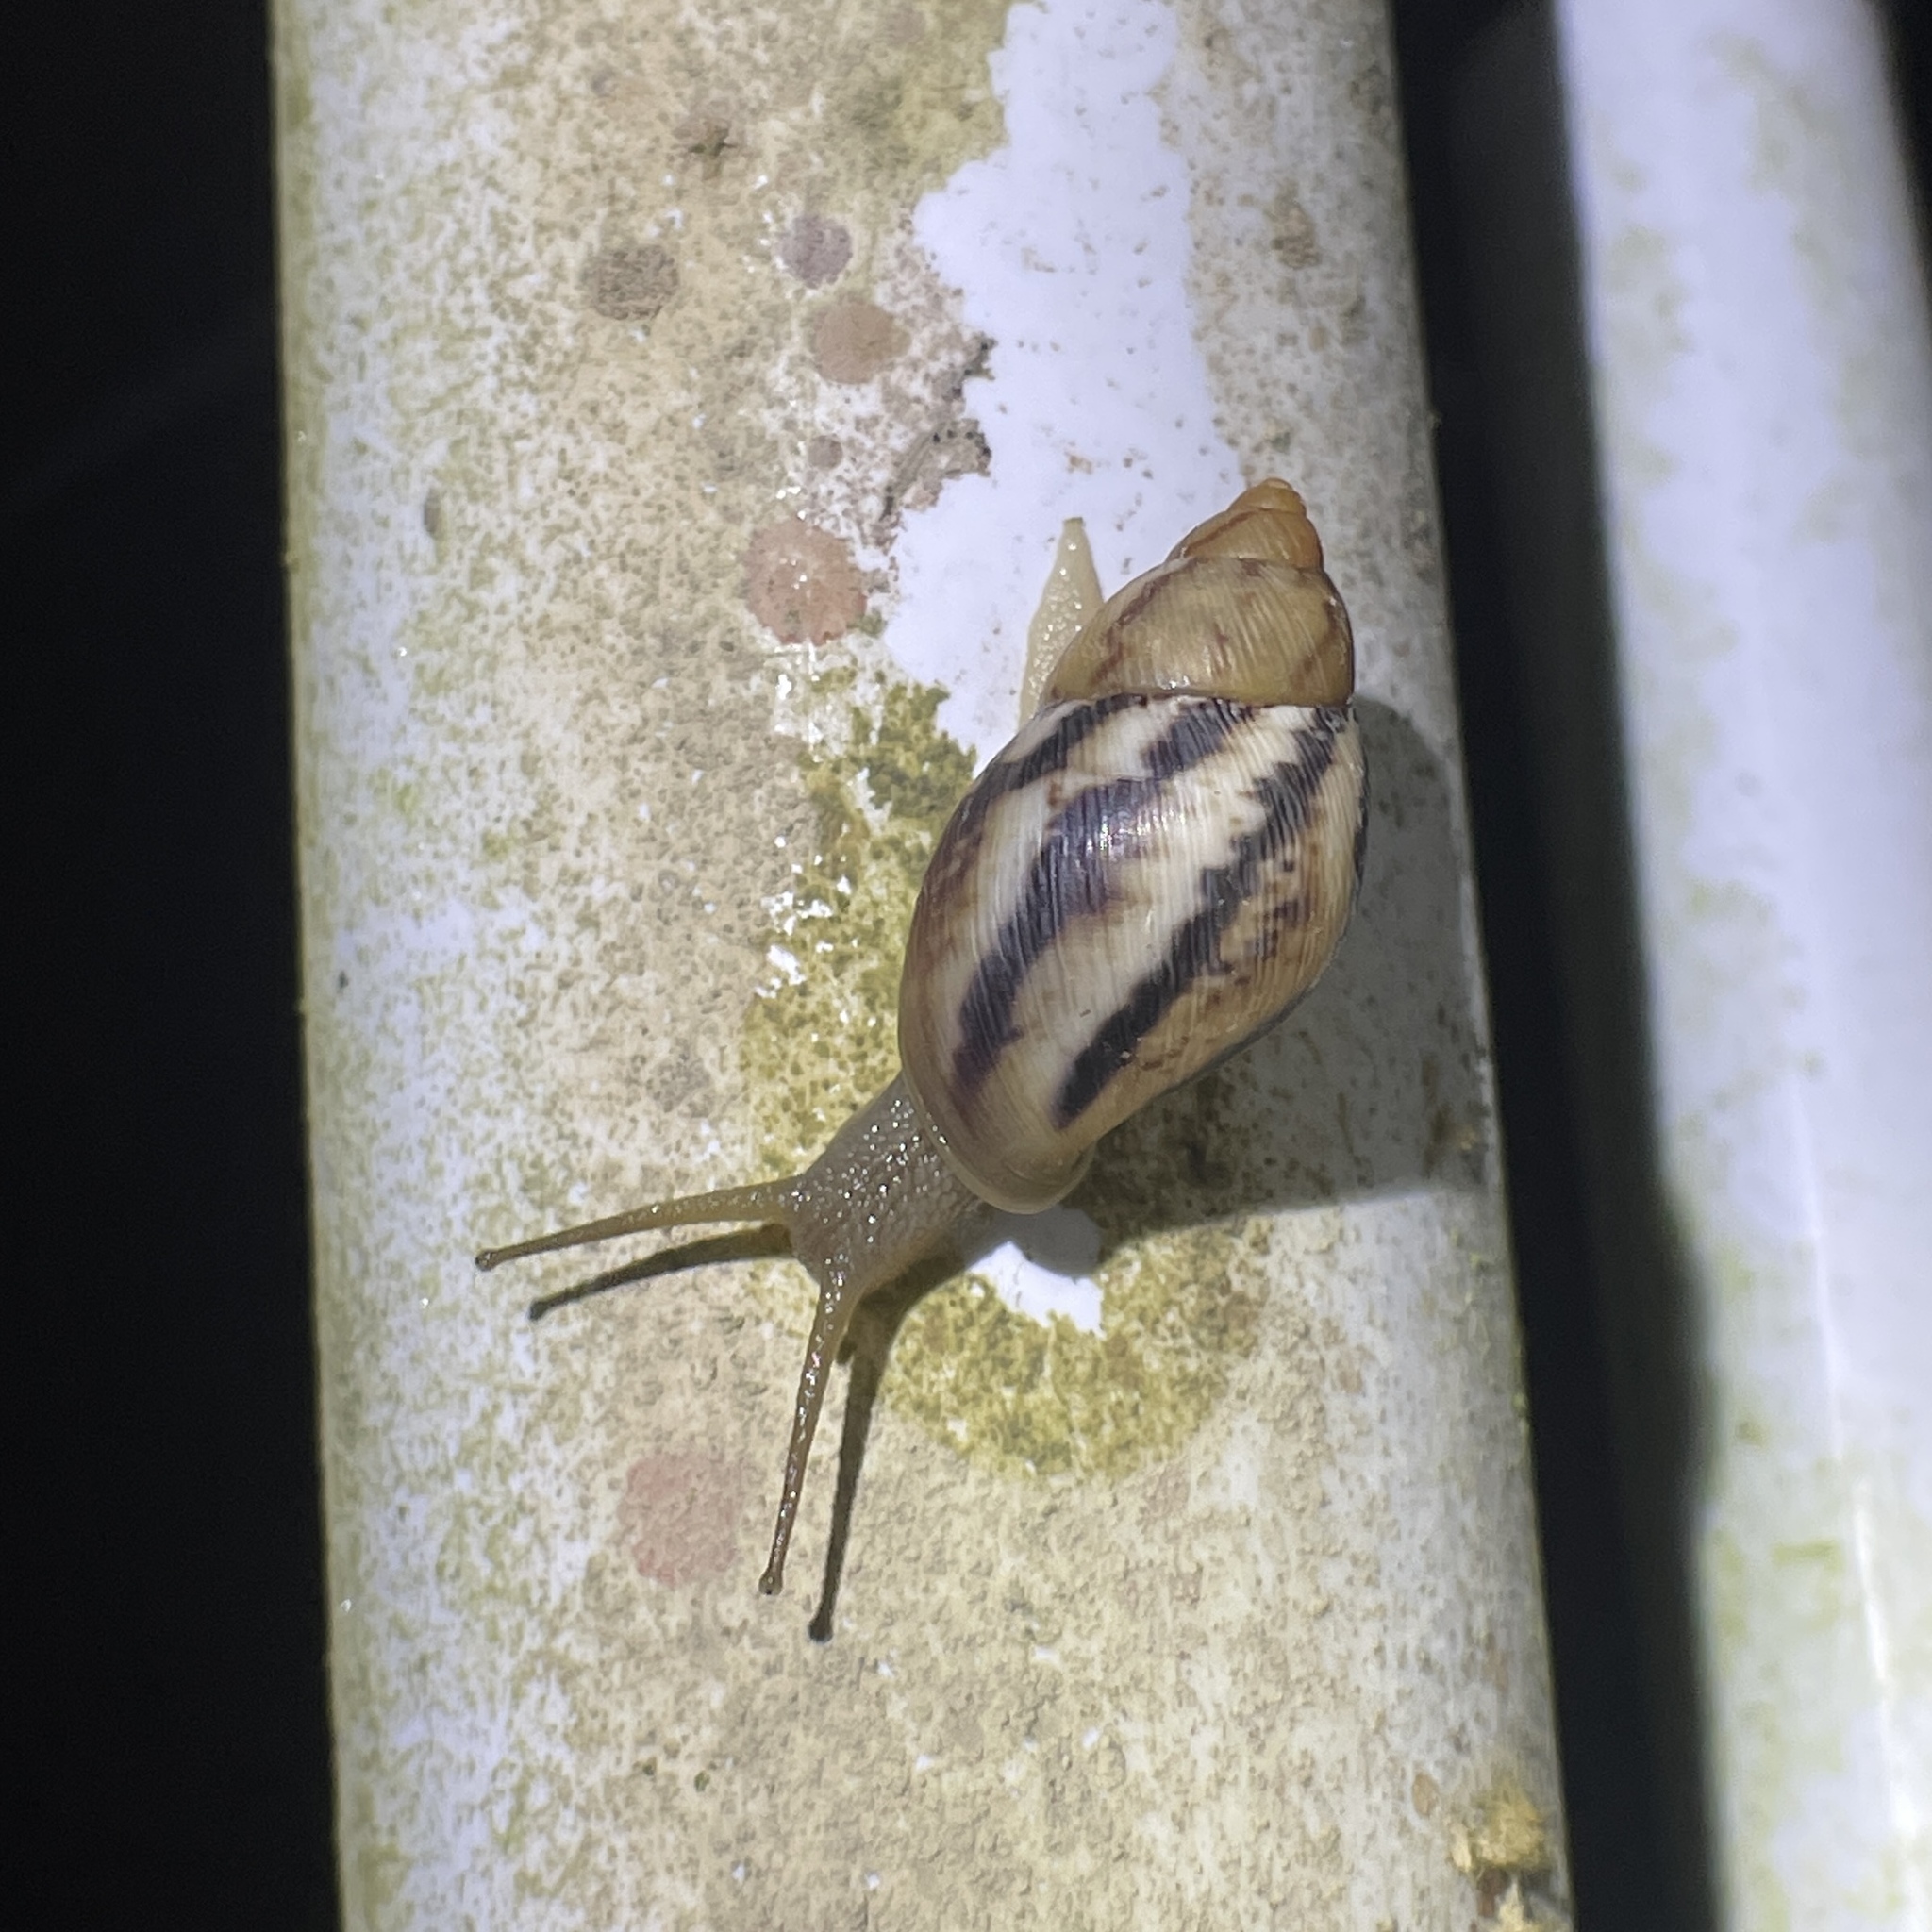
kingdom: Animalia
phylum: Mollusca
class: Gastropoda
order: Stylommatophora
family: Amphibulimidae
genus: Plekocheilus
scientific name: Plekocheilus glaber
